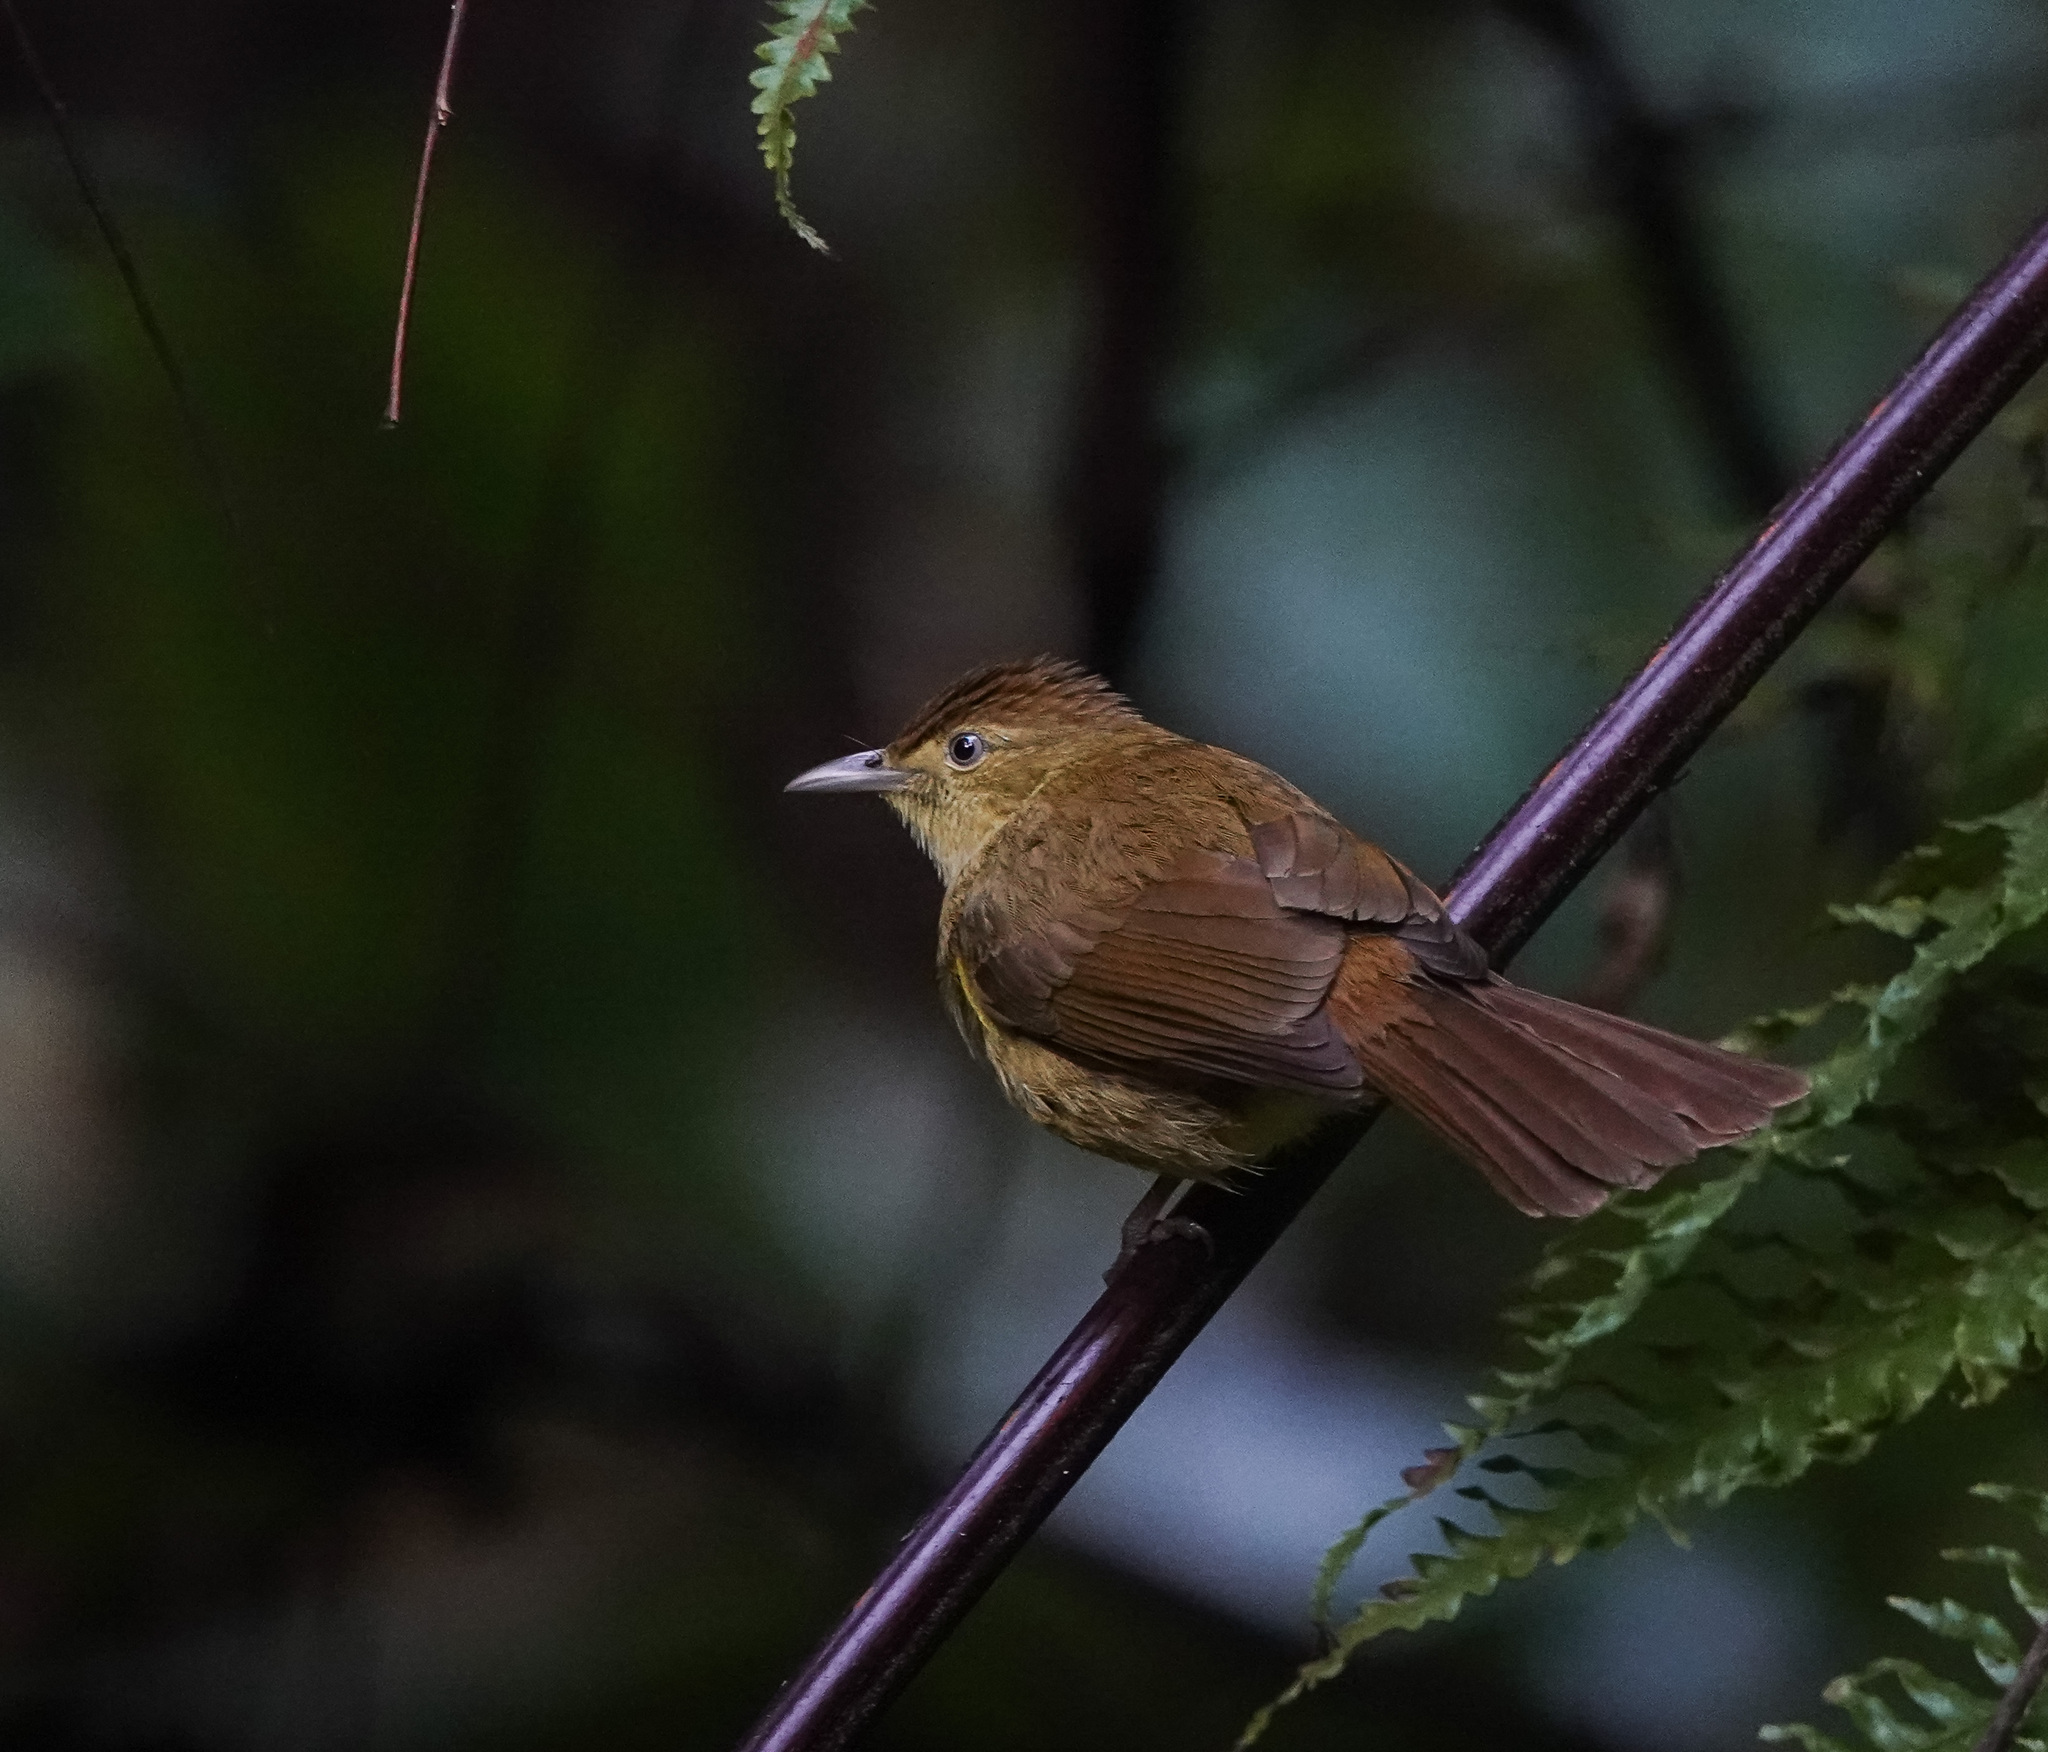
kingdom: Animalia
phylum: Chordata
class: Aves
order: Passeriformes
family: Pycnonotidae
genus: Iole
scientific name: Iole virescens
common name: Olive bulbul
